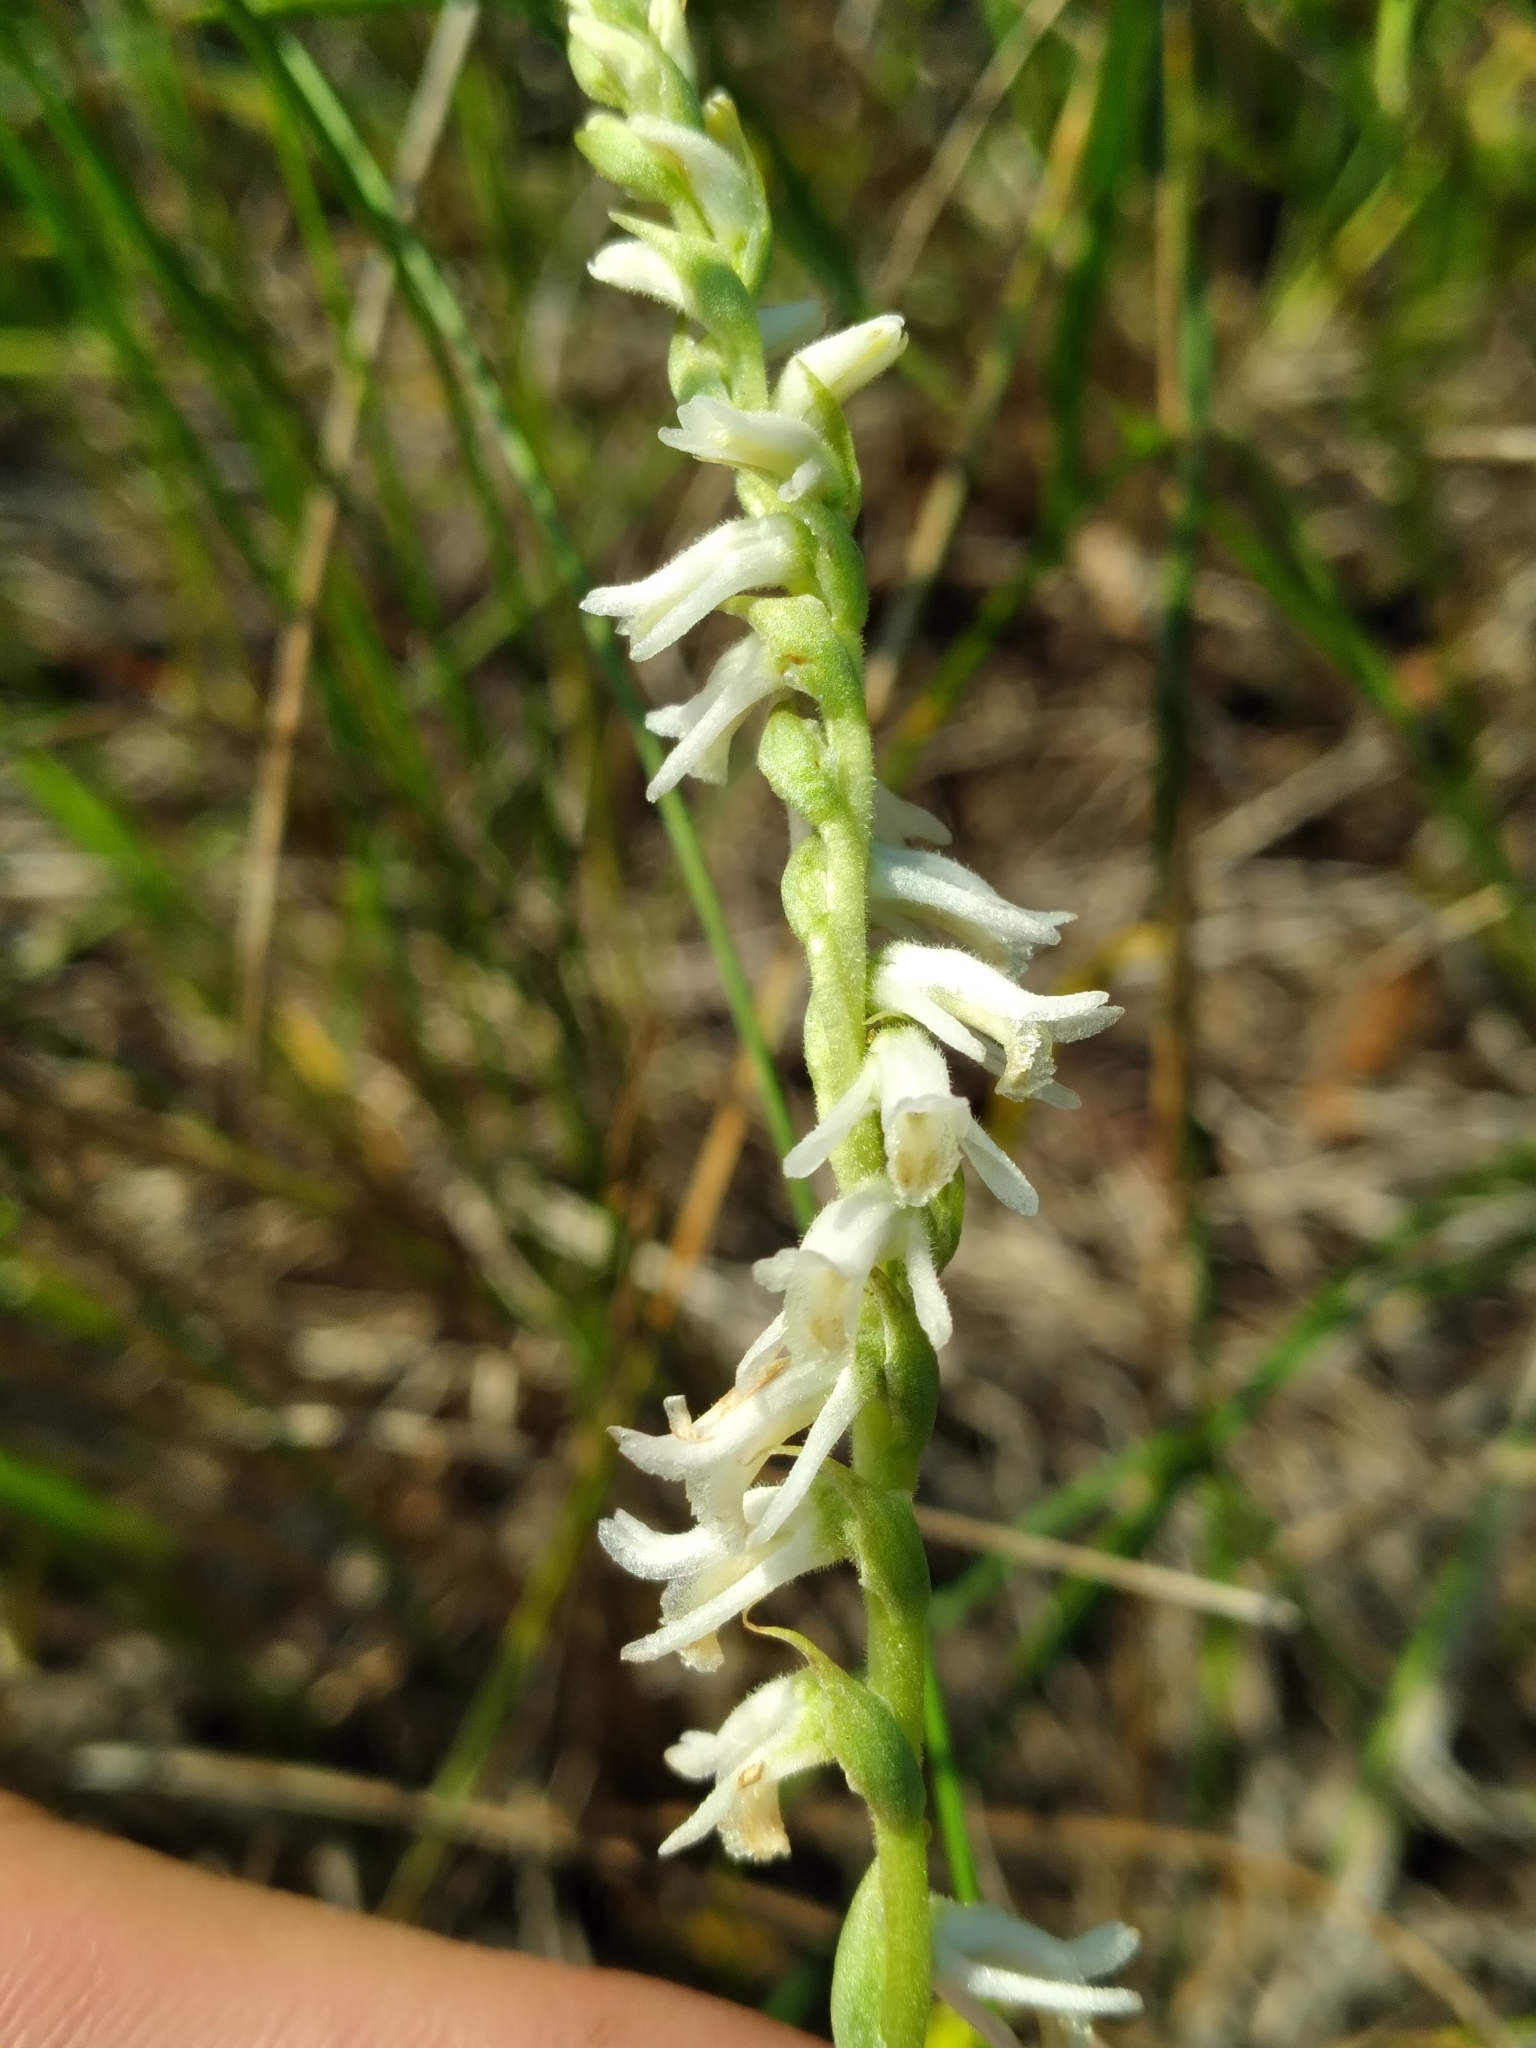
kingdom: Plantae
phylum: Tracheophyta
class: Liliopsida
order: Asparagales
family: Orchidaceae
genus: Spiranthes
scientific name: Spiranthes vernalis
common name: Spring ladies'-tresses
